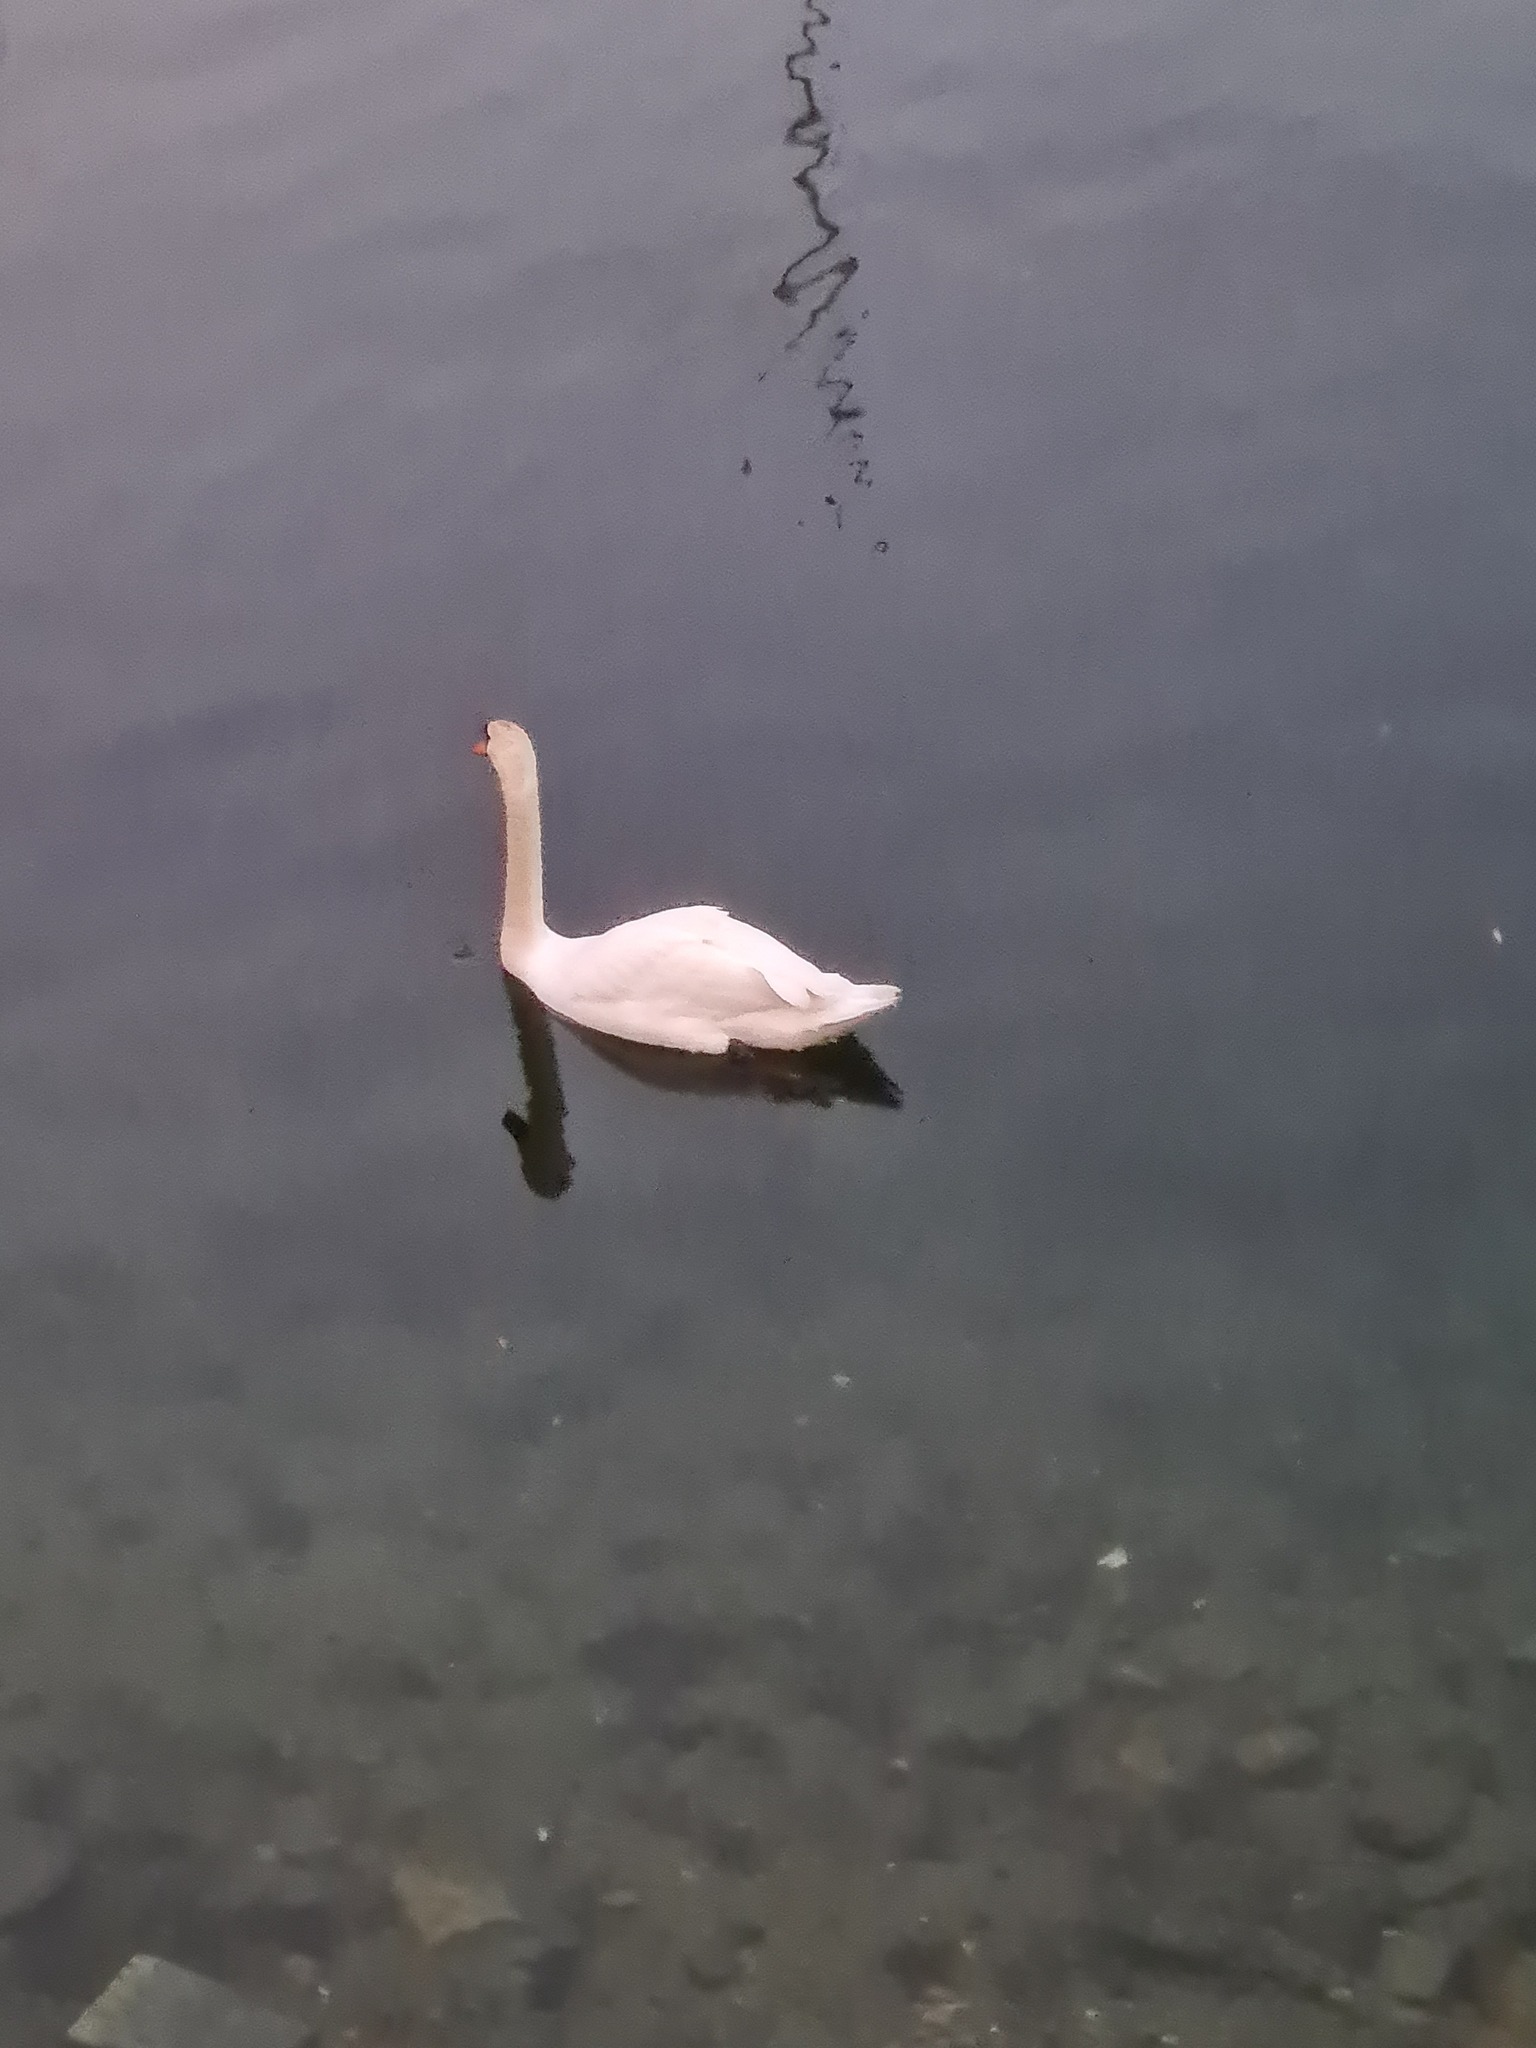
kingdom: Animalia
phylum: Chordata
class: Aves
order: Anseriformes
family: Anatidae
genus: Cygnus
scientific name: Cygnus olor
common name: Mute swan
